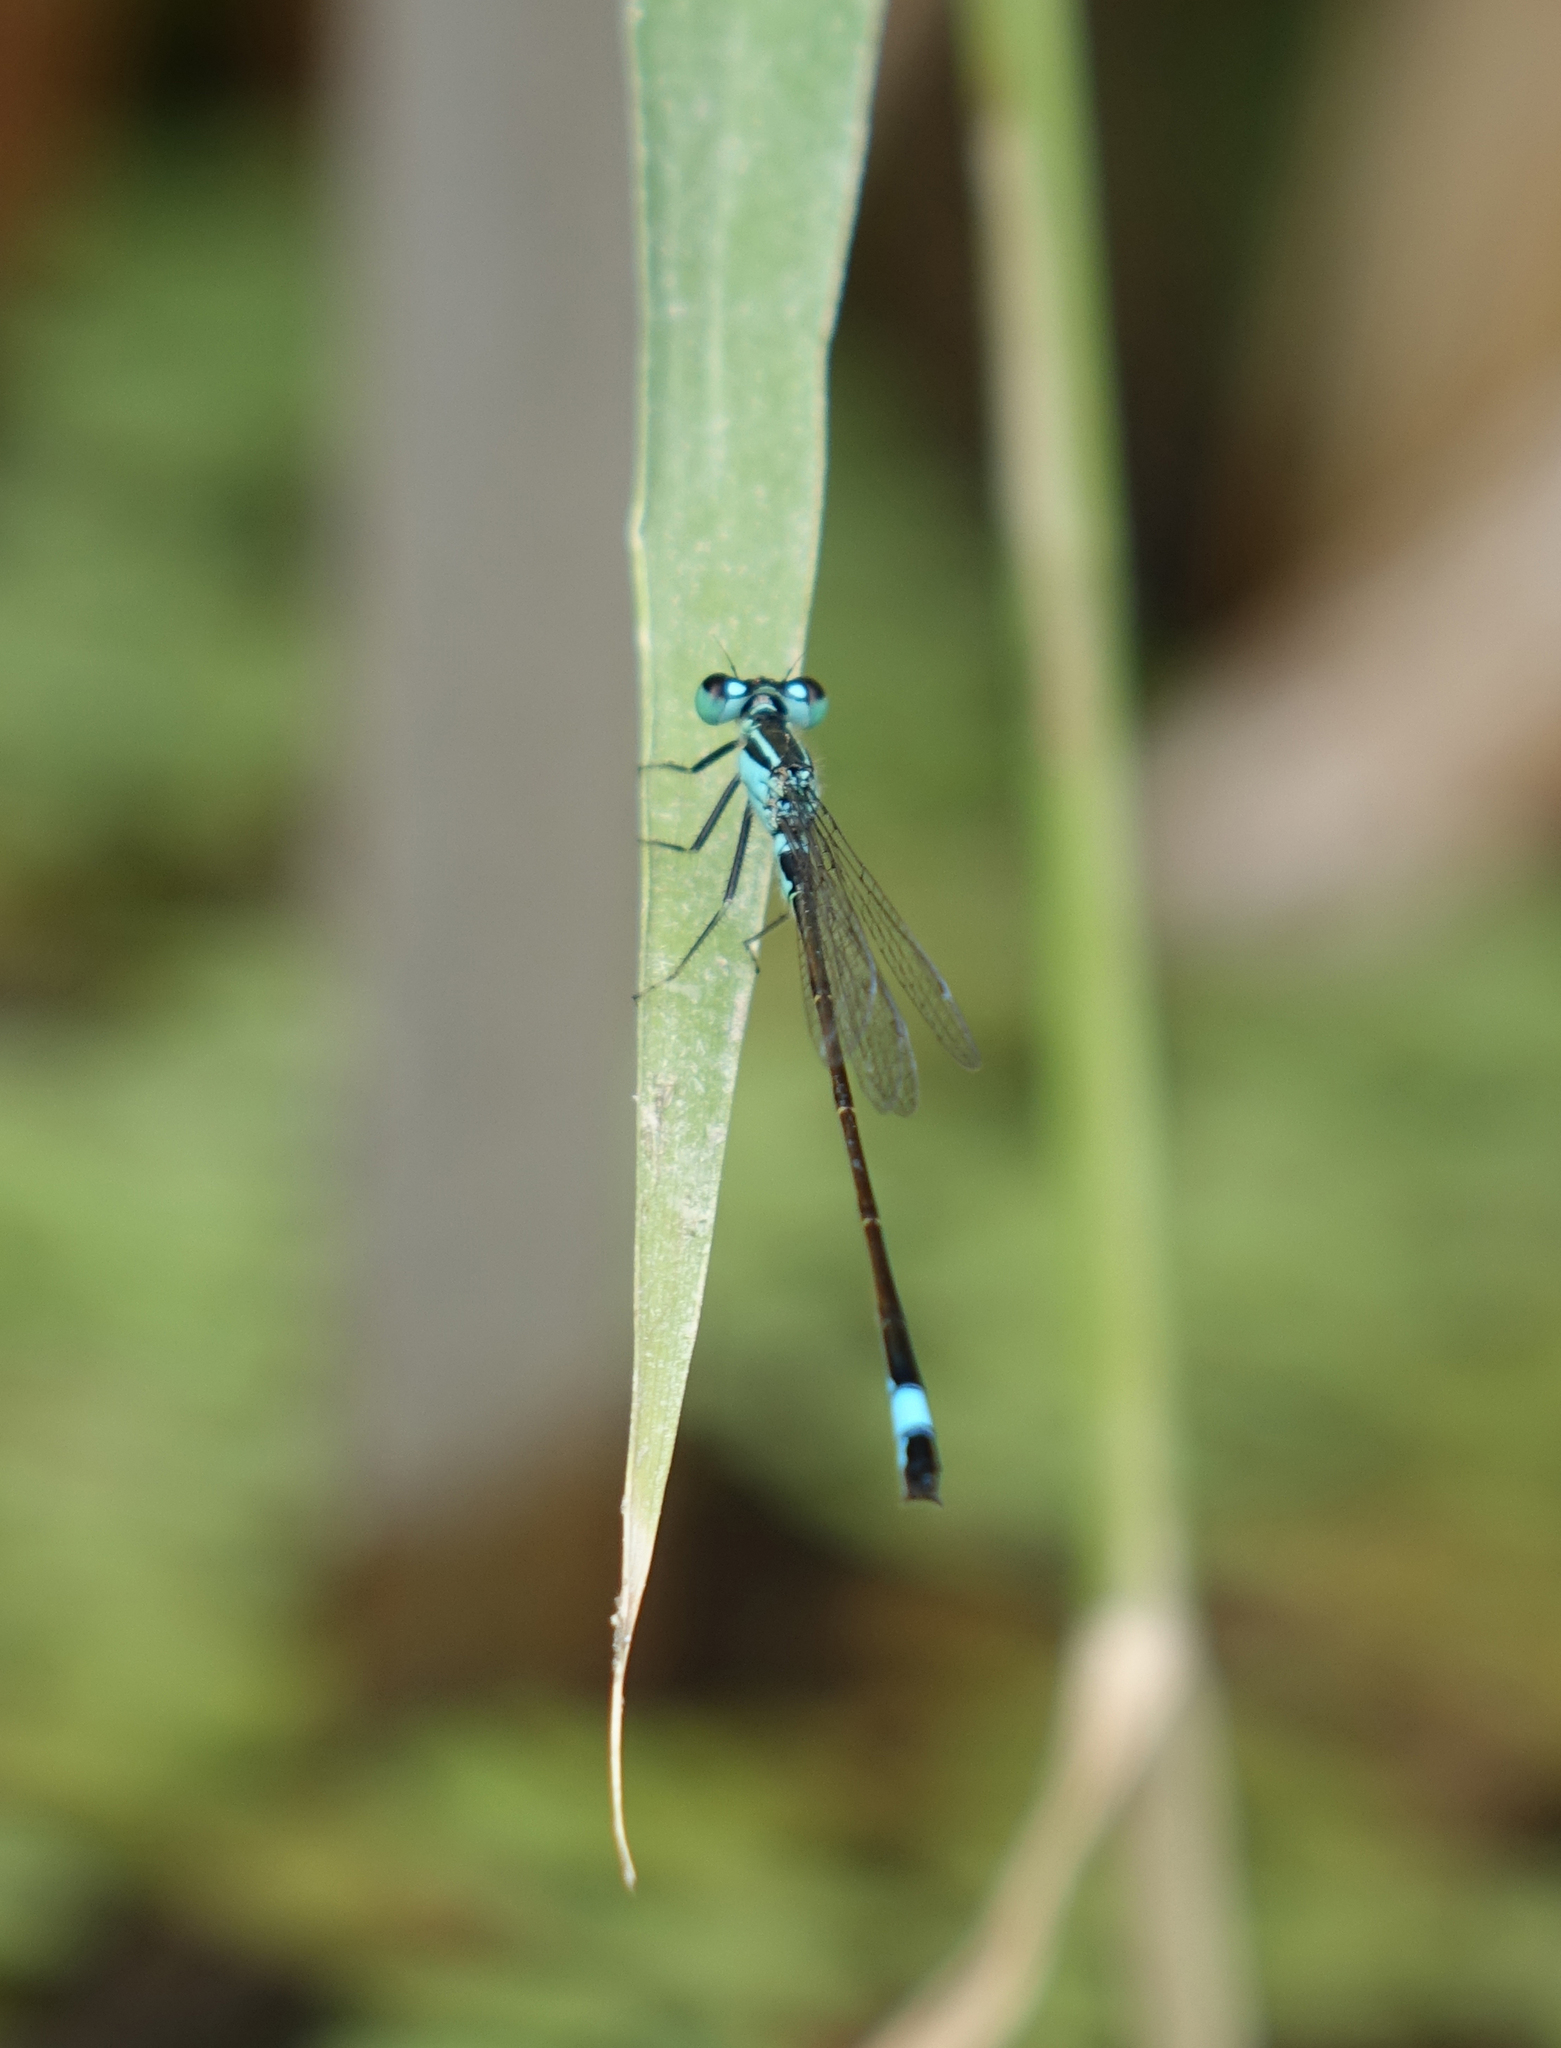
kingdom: Animalia
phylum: Arthropoda
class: Insecta
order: Odonata
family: Coenagrionidae
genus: Ischnura
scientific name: Ischnura elegans
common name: Blue-tailed damselfly
